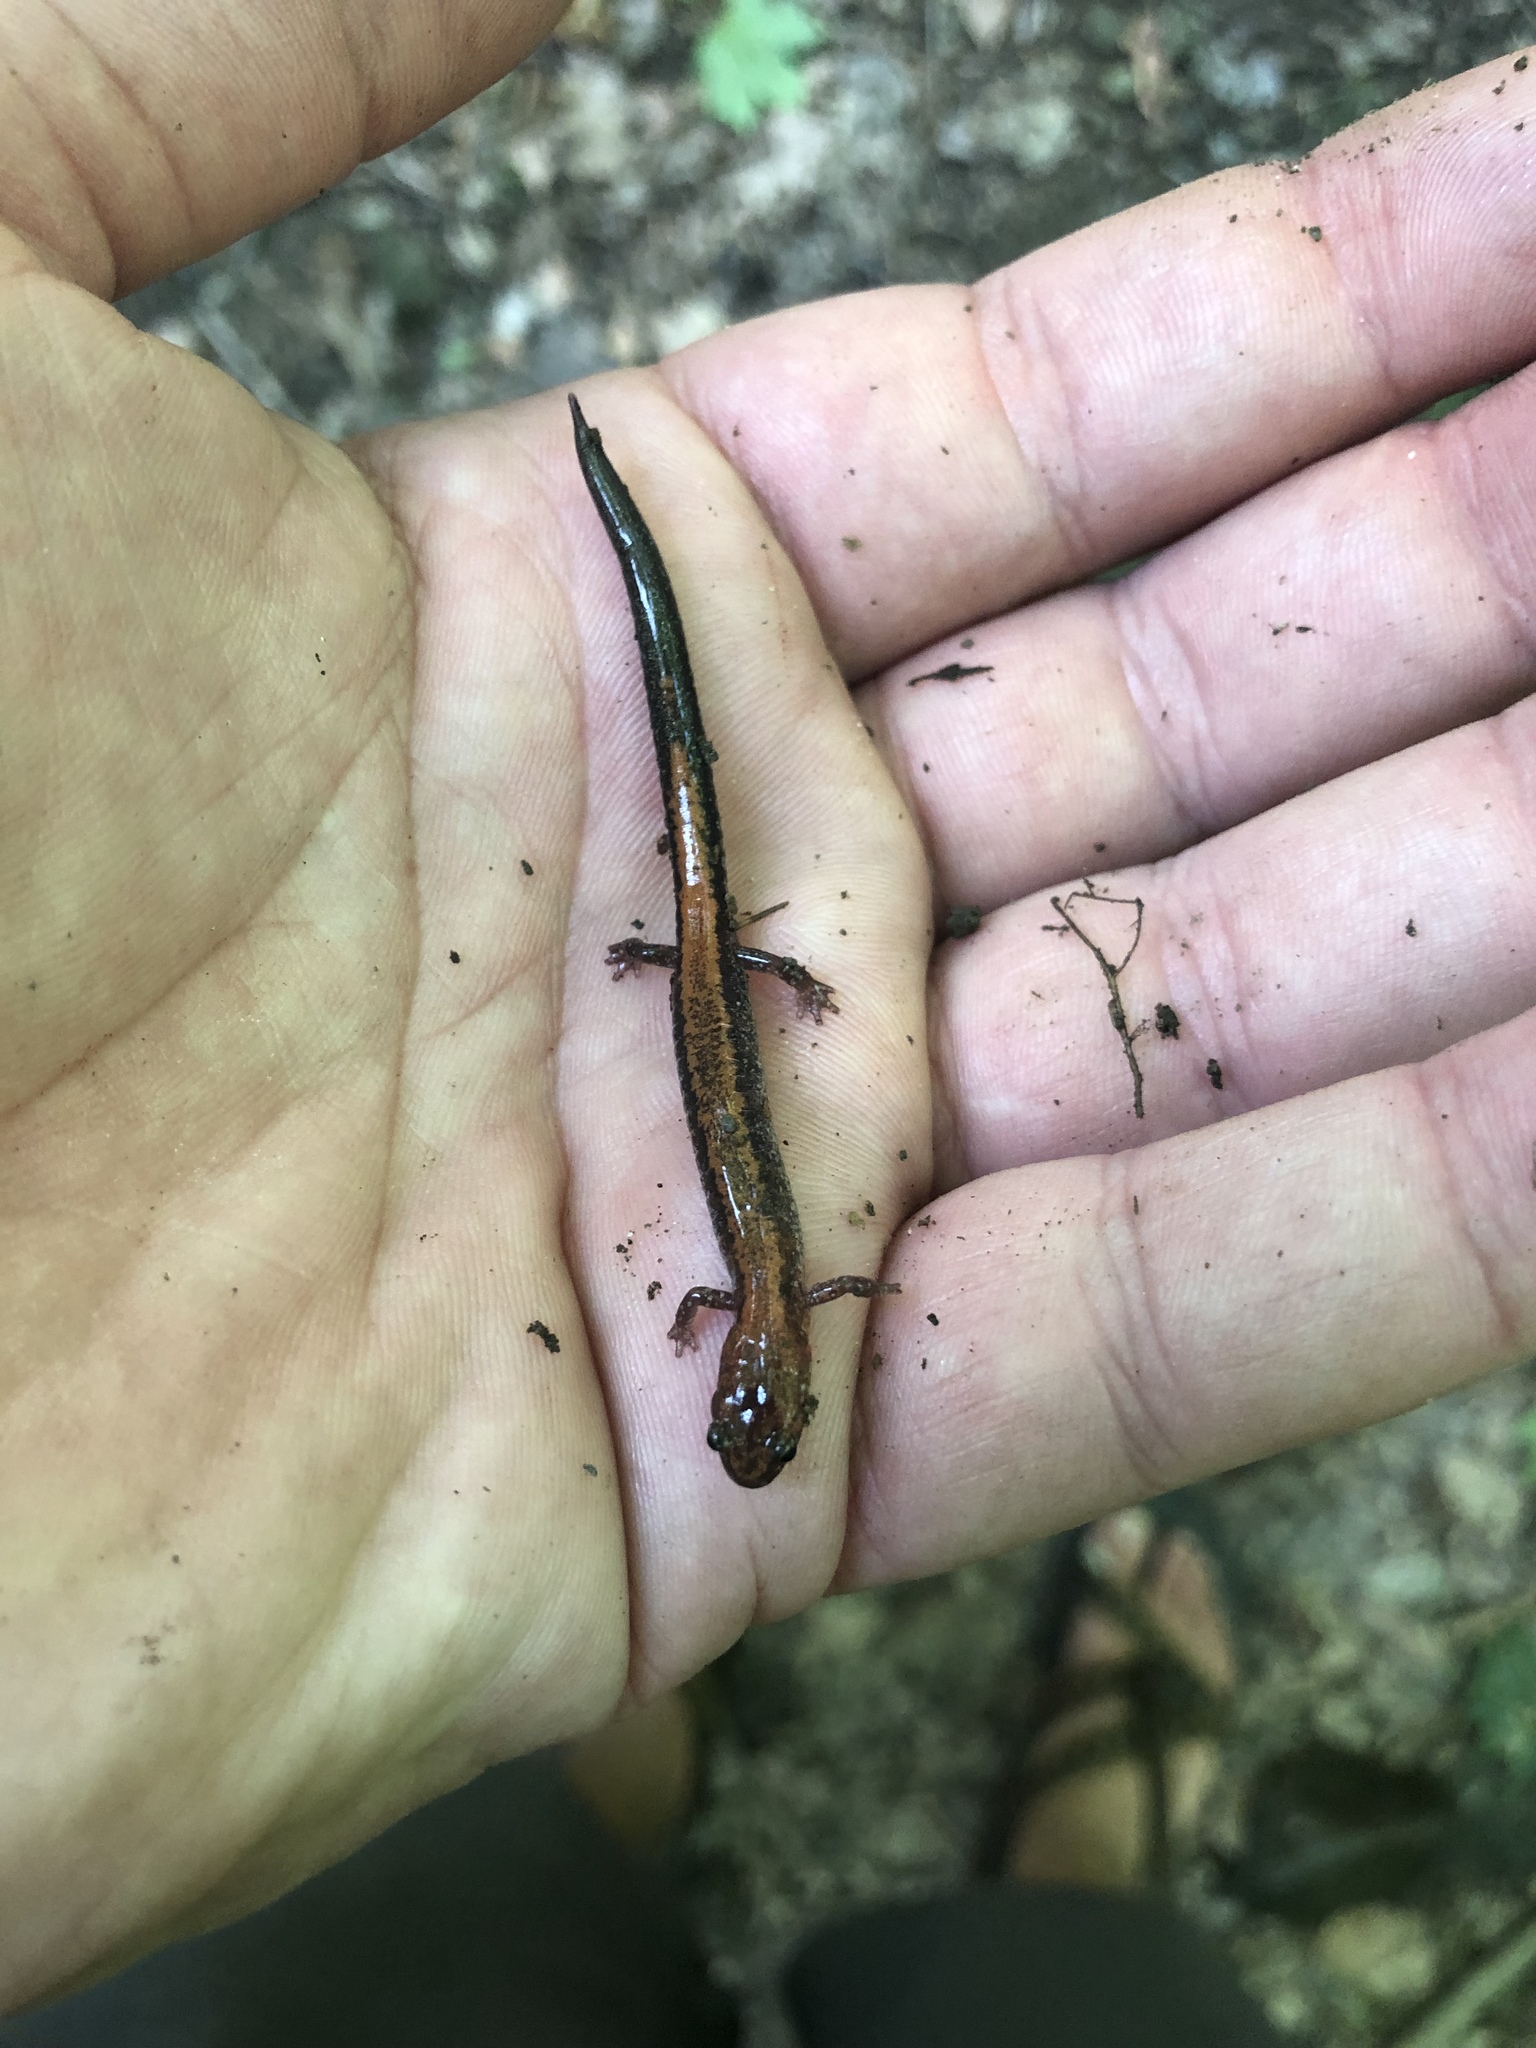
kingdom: Animalia
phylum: Chordata
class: Amphibia
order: Caudata
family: Plethodontidae
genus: Plethodon
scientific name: Plethodon cinereus
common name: Redback salamander
